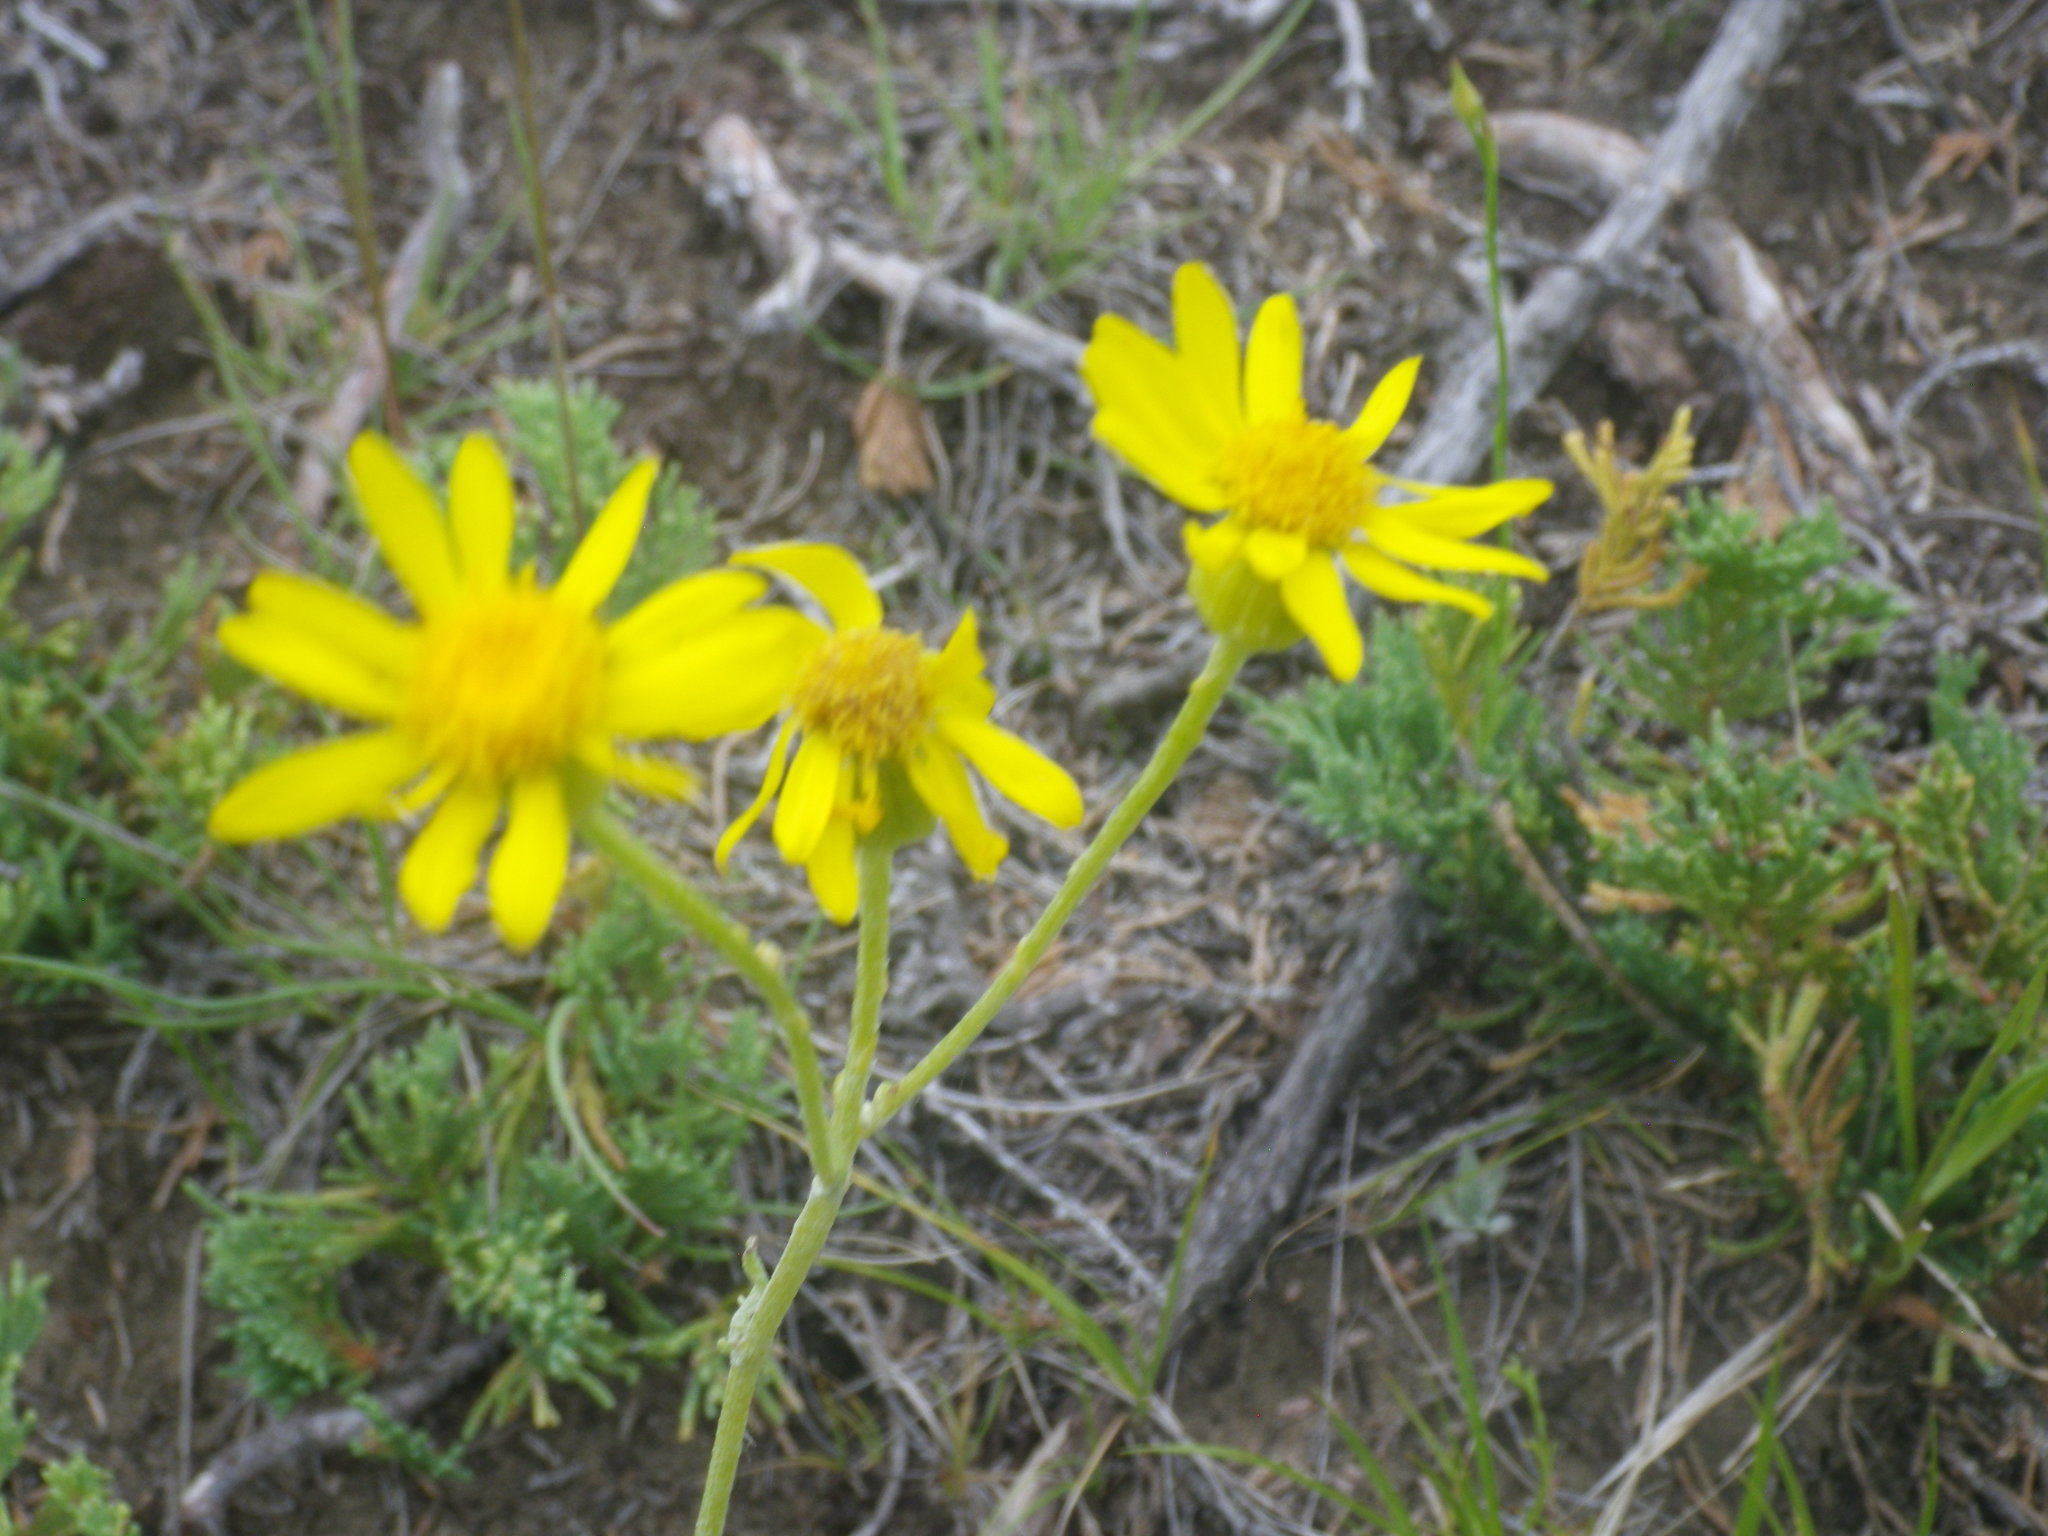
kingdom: Plantae
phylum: Tracheophyta
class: Magnoliopsida
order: Asterales
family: Asteraceae
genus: Packera
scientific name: Packera cana
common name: Woolly groundsel
